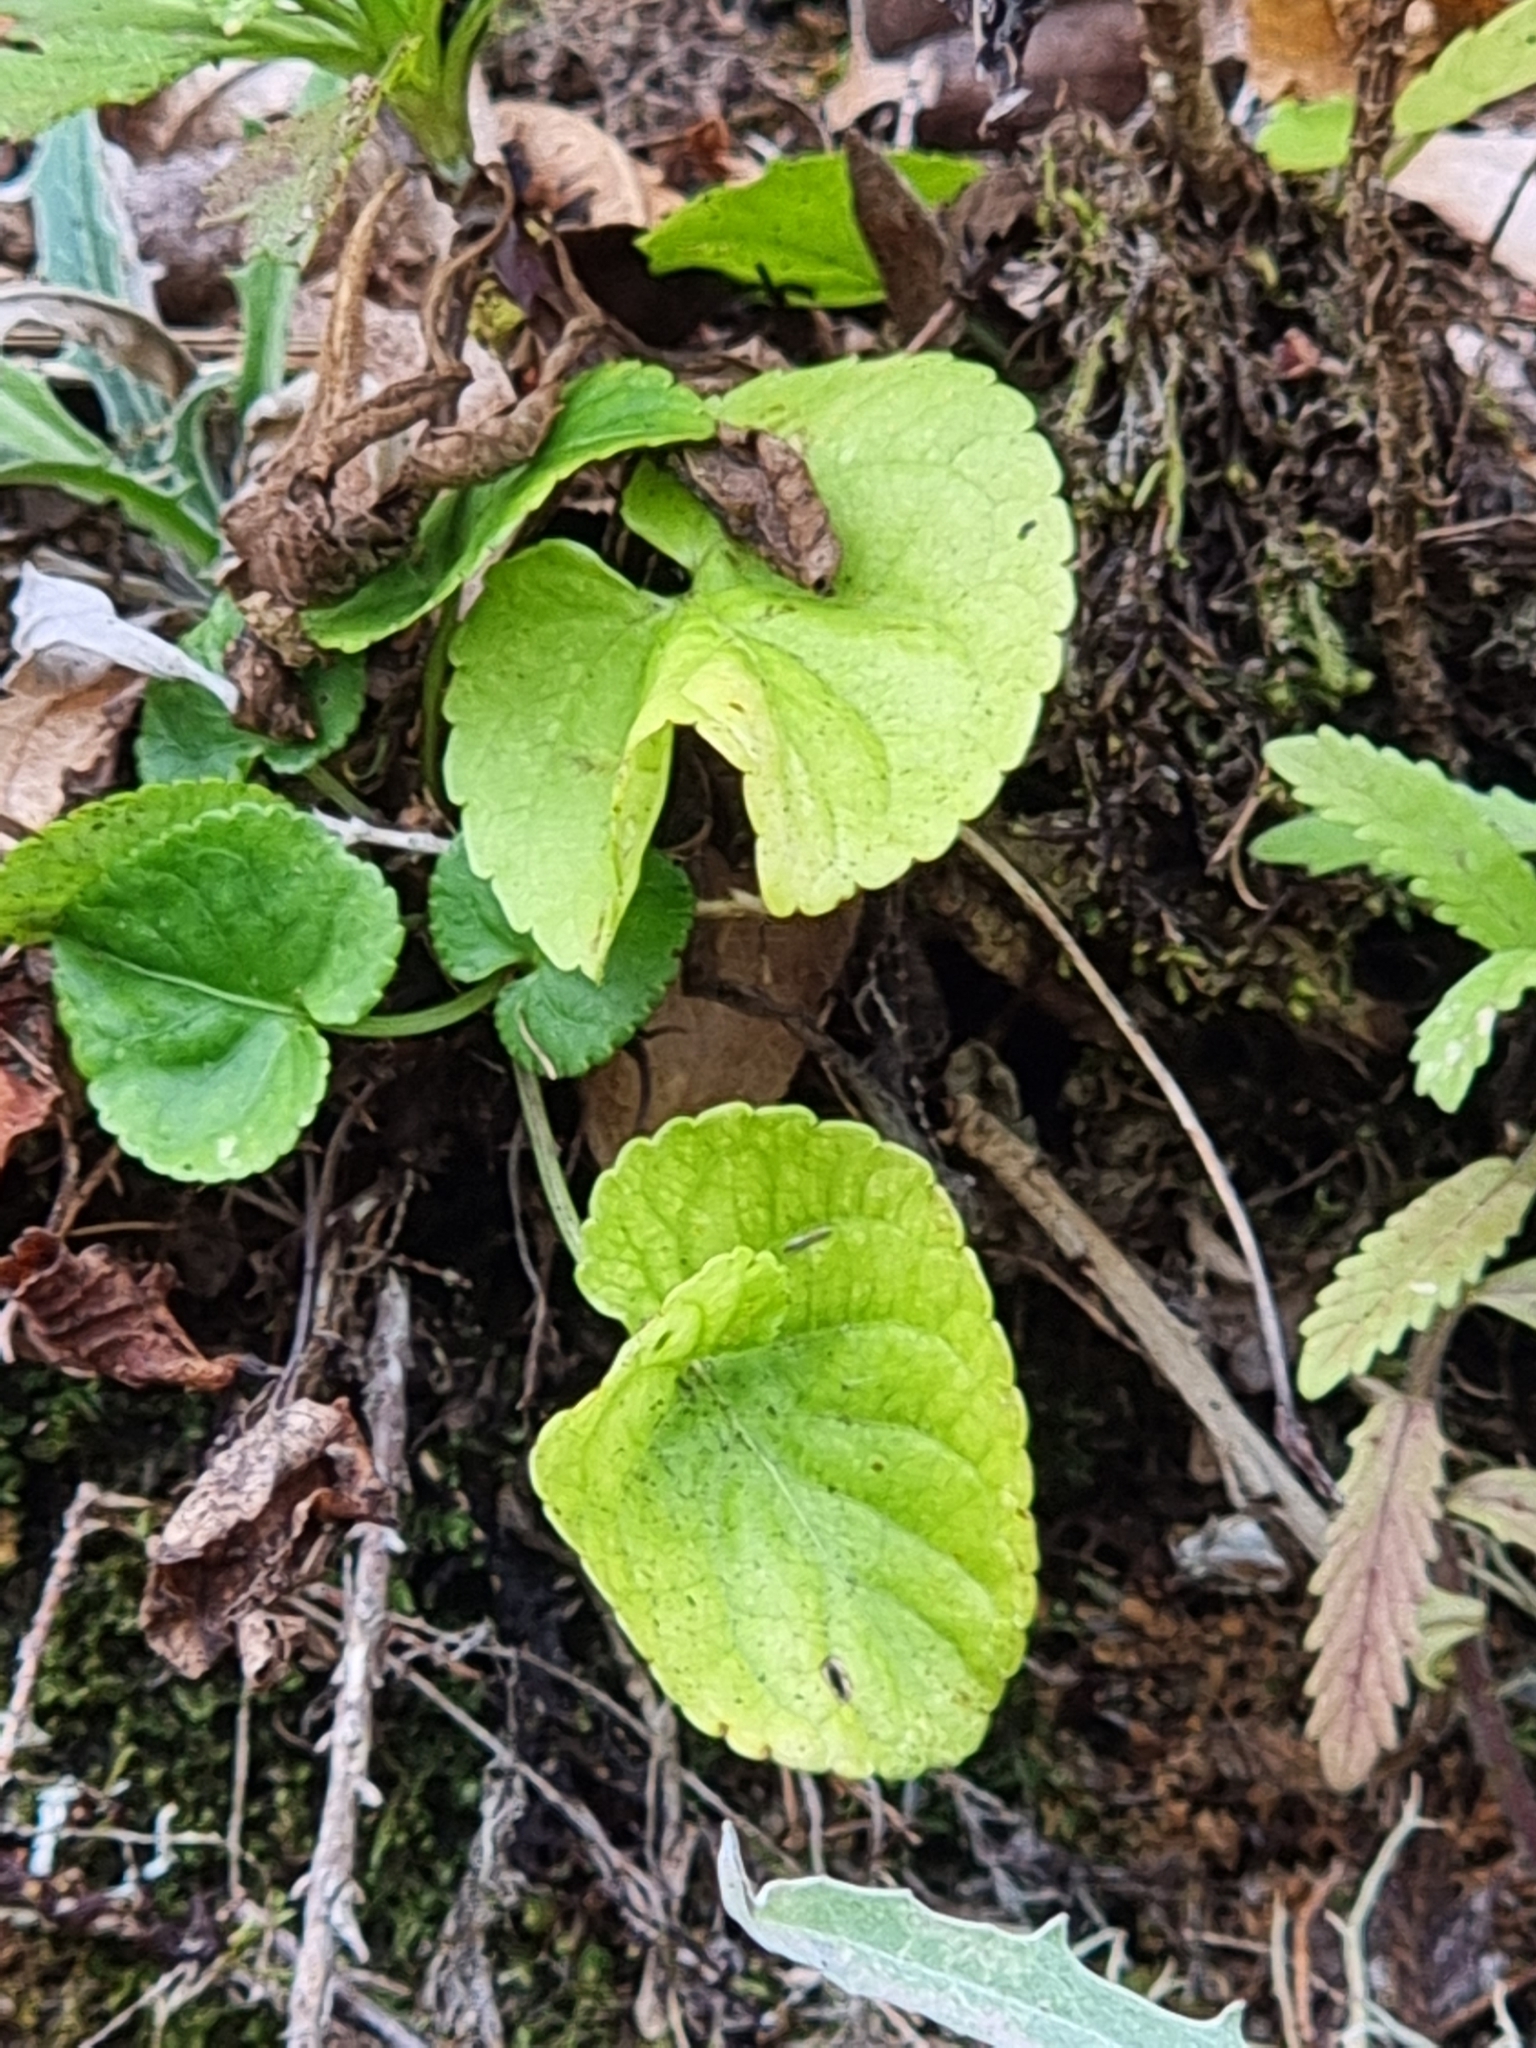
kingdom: Plantae
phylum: Tracheophyta
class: Magnoliopsida
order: Malpighiales
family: Violaceae
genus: Viola
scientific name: Viola riviniana
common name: Common dog-violet
